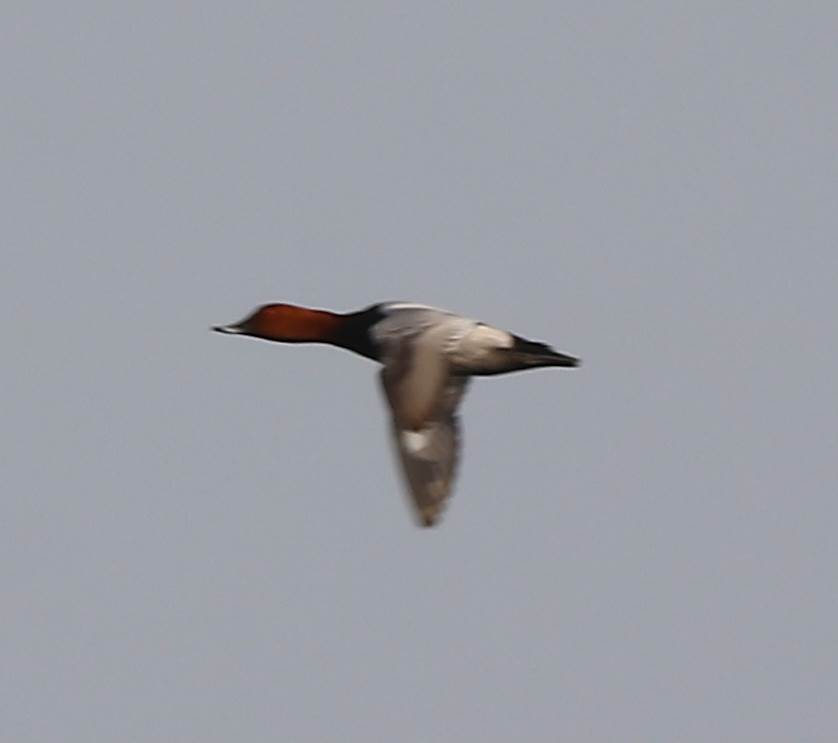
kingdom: Animalia
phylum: Chordata
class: Aves
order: Anseriformes
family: Anatidae
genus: Aythya
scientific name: Aythya ferina
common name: Common pochard
